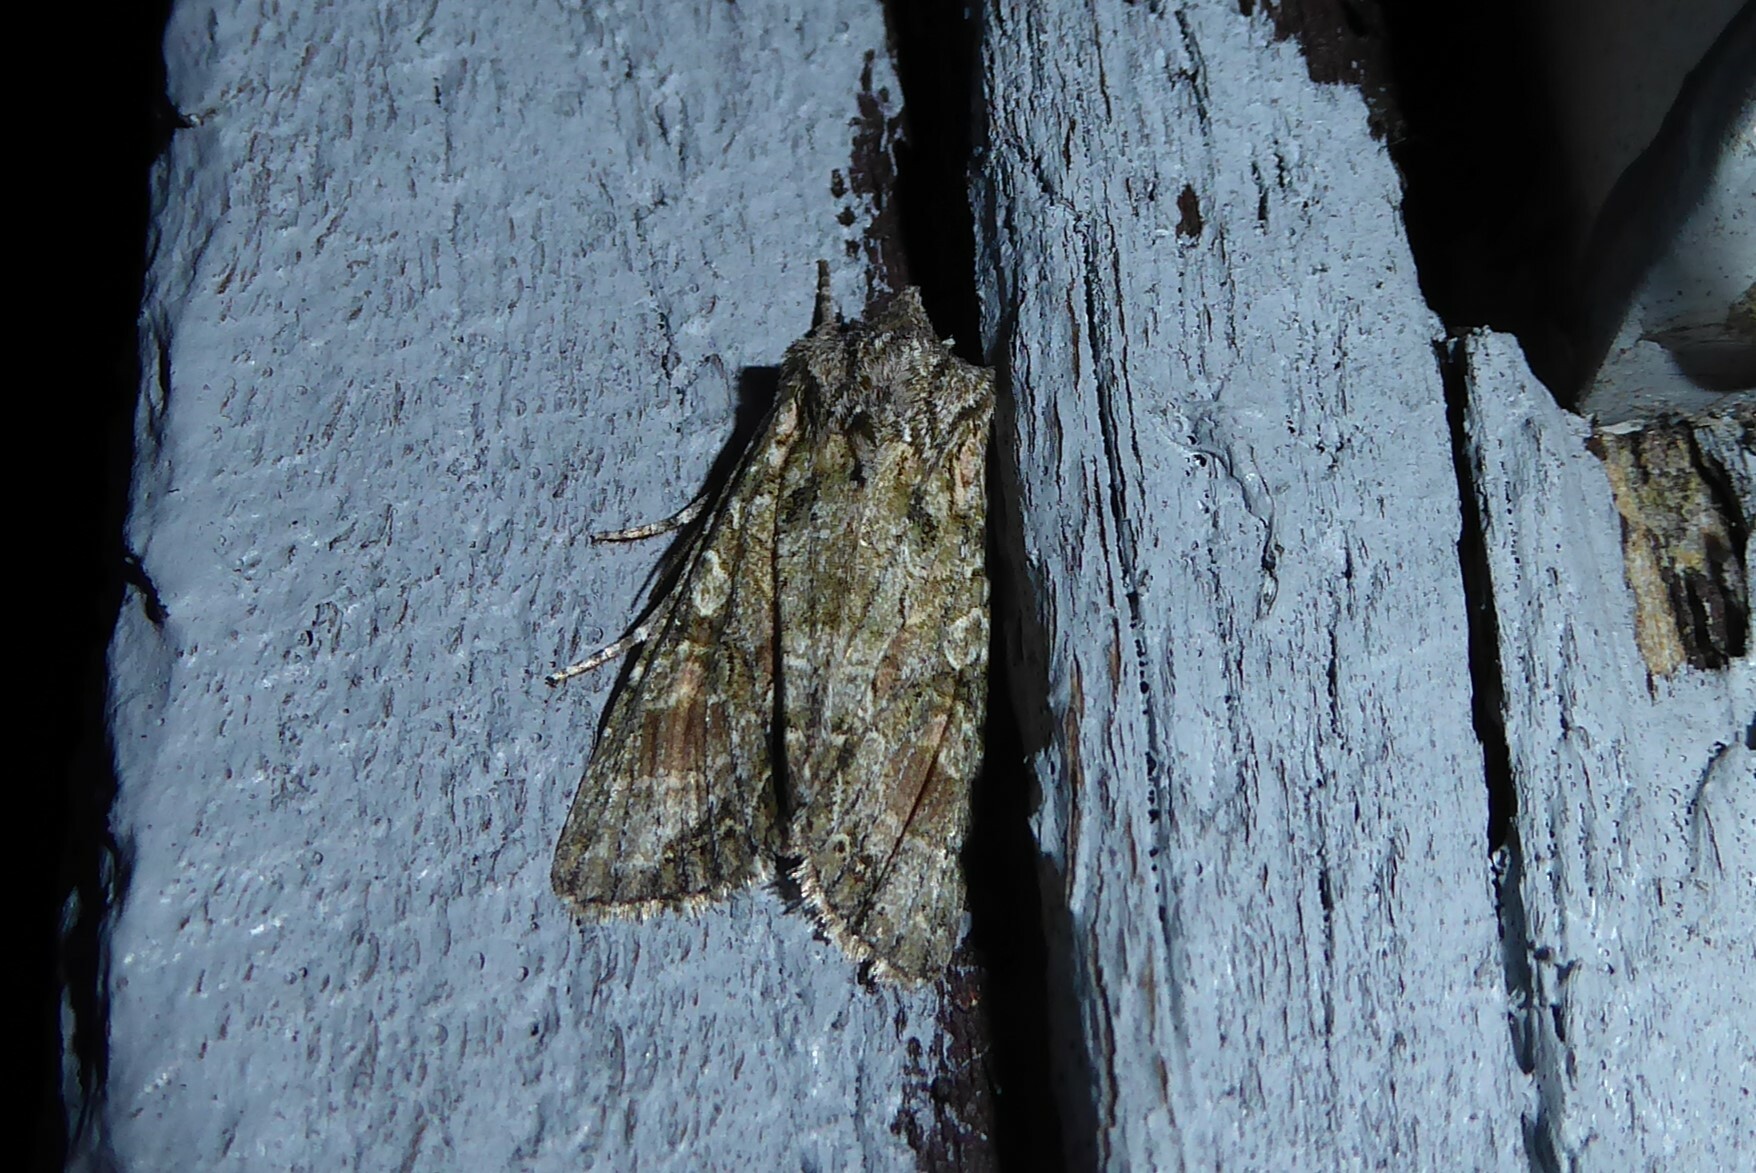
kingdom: Animalia
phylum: Arthropoda
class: Insecta
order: Lepidoptera
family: Noctuidae
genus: Ichneutica
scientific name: Ichneutica mutans
